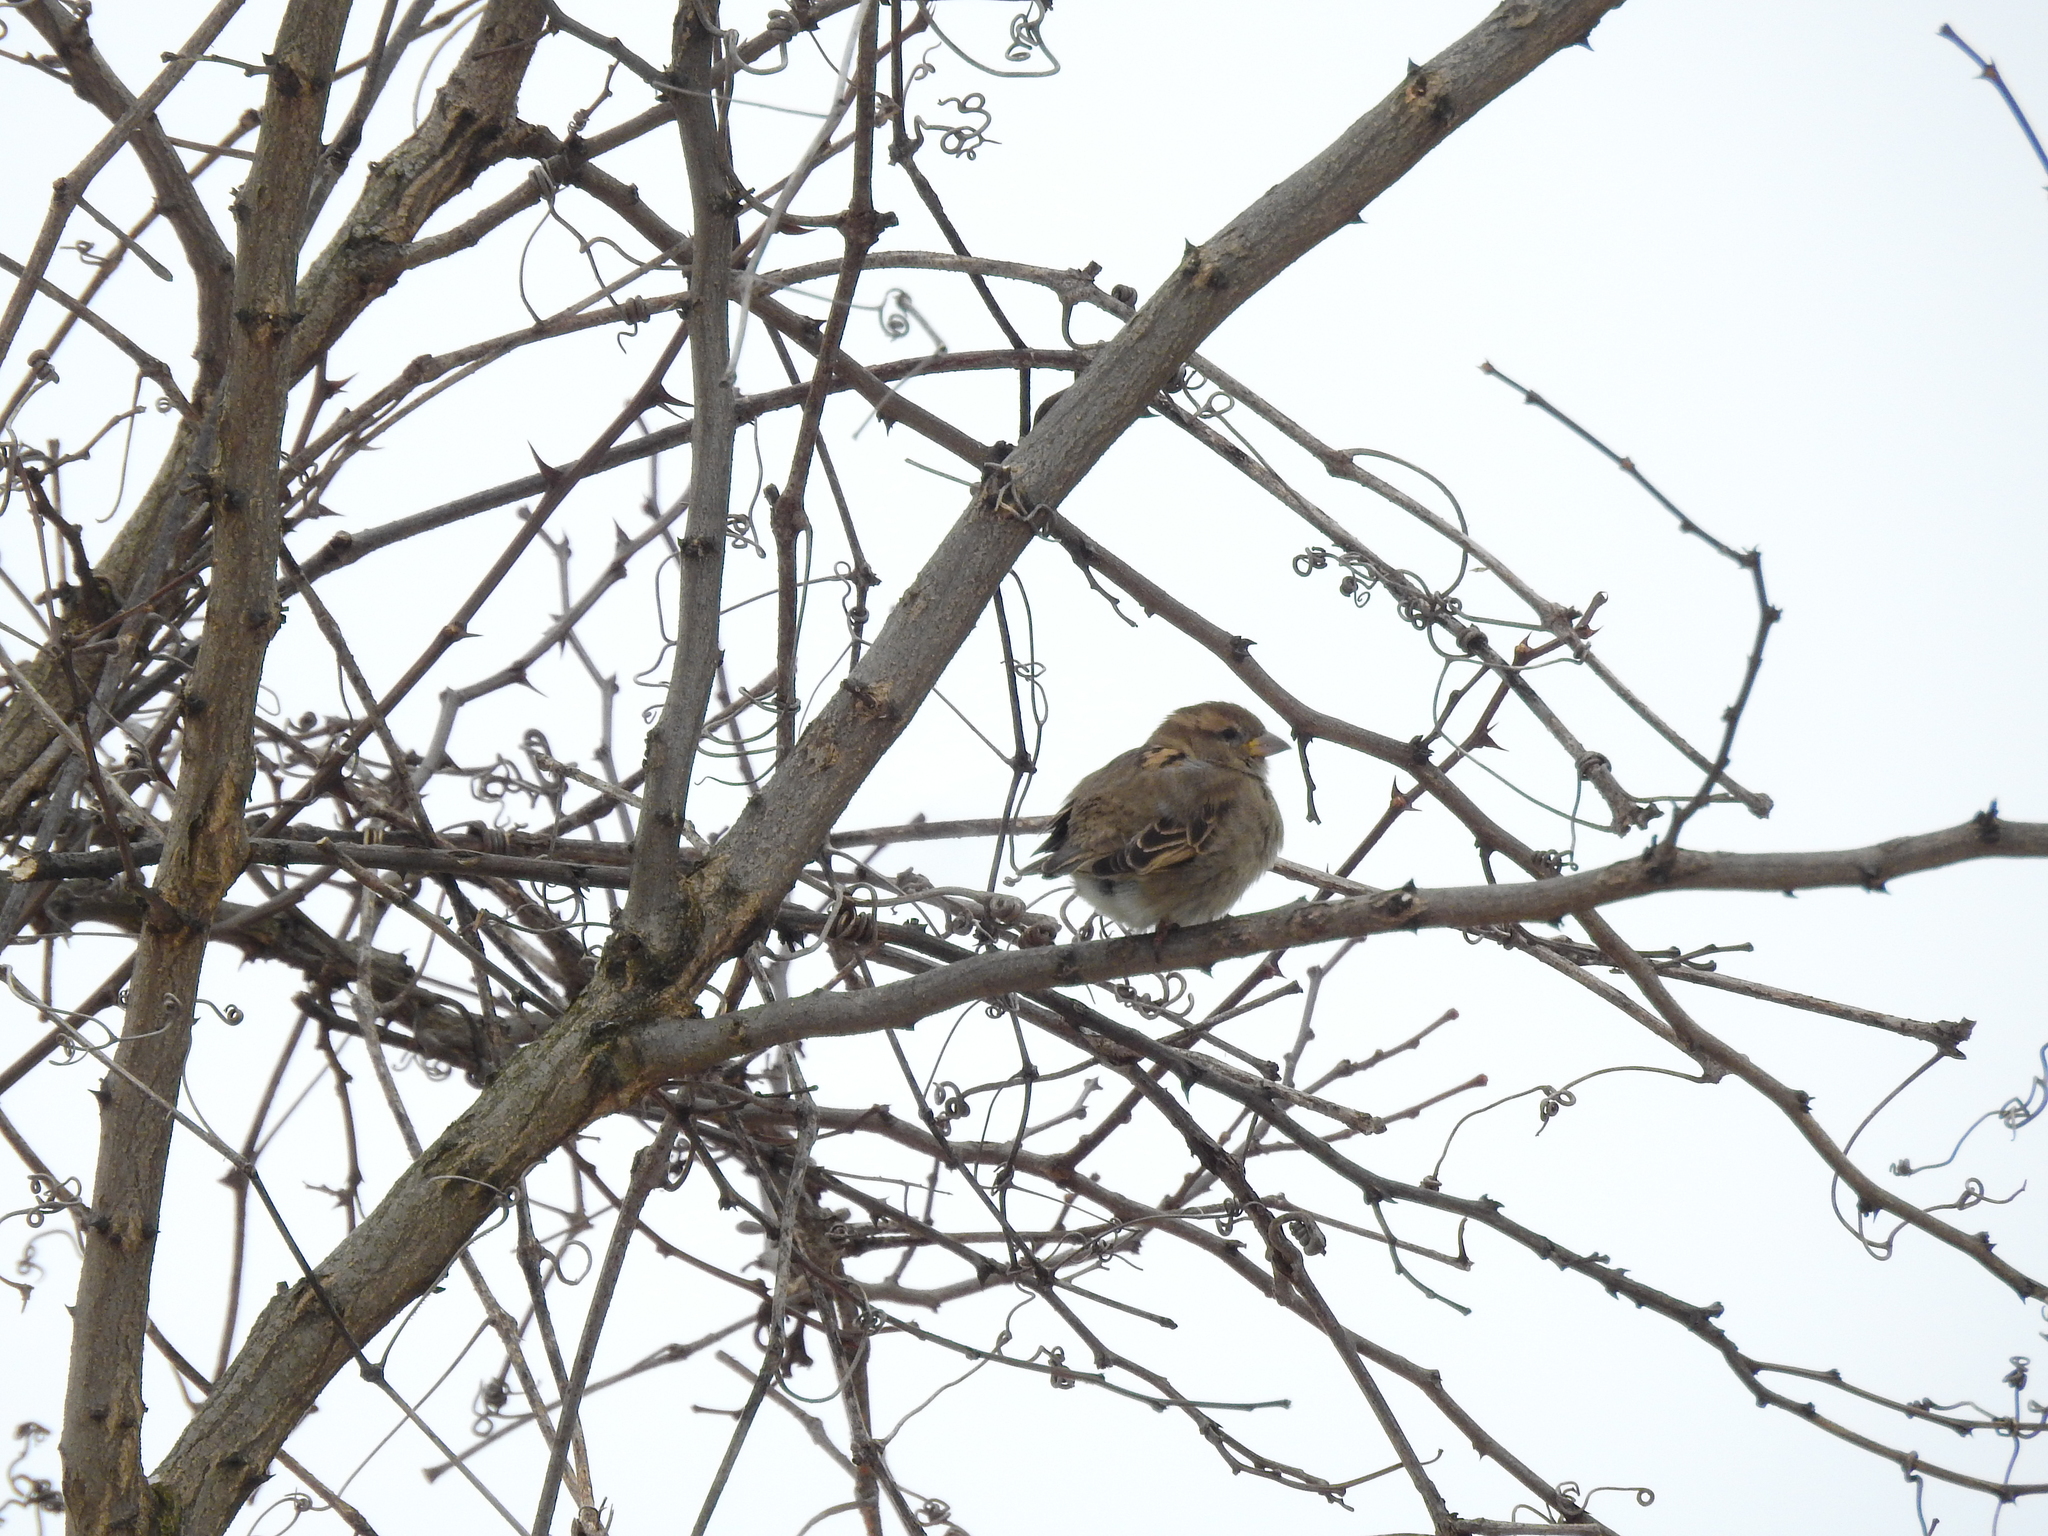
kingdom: Animalia
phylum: Chordata
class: Aves
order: Passeriformes
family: Passeridae
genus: Passer
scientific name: Passer domesticus
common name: House sparrow
